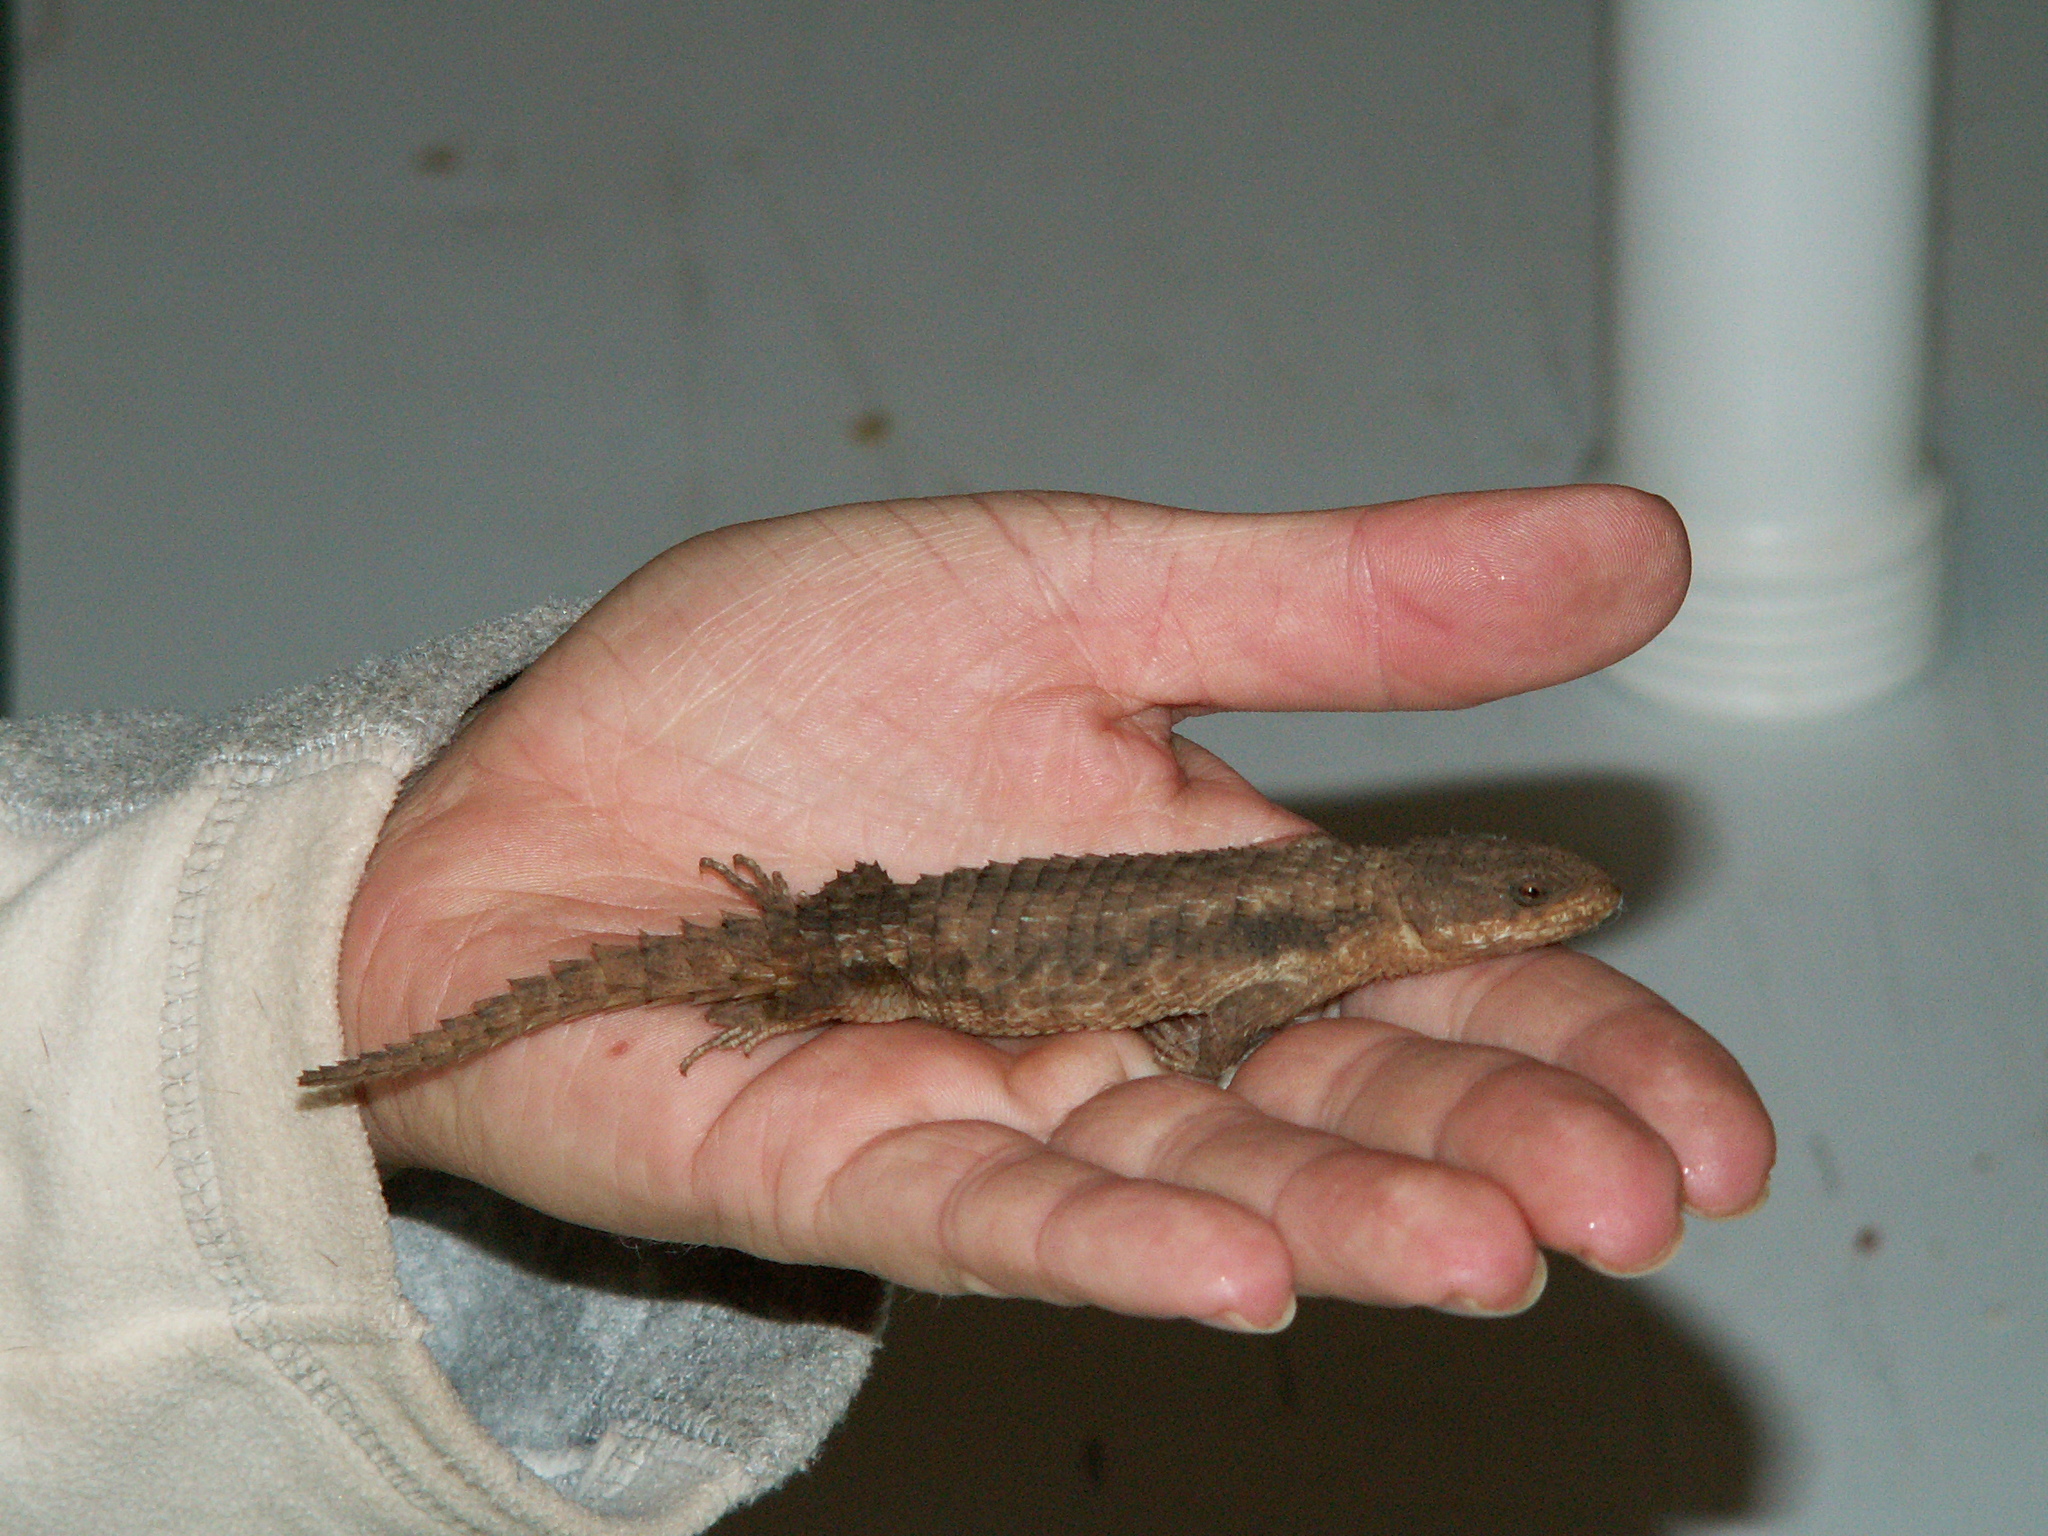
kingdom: Animalia
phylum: Chordata
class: Squamata
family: Cordylidae
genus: Cordylus
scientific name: Cordylus jonesii
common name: Jones' girdled lizard
